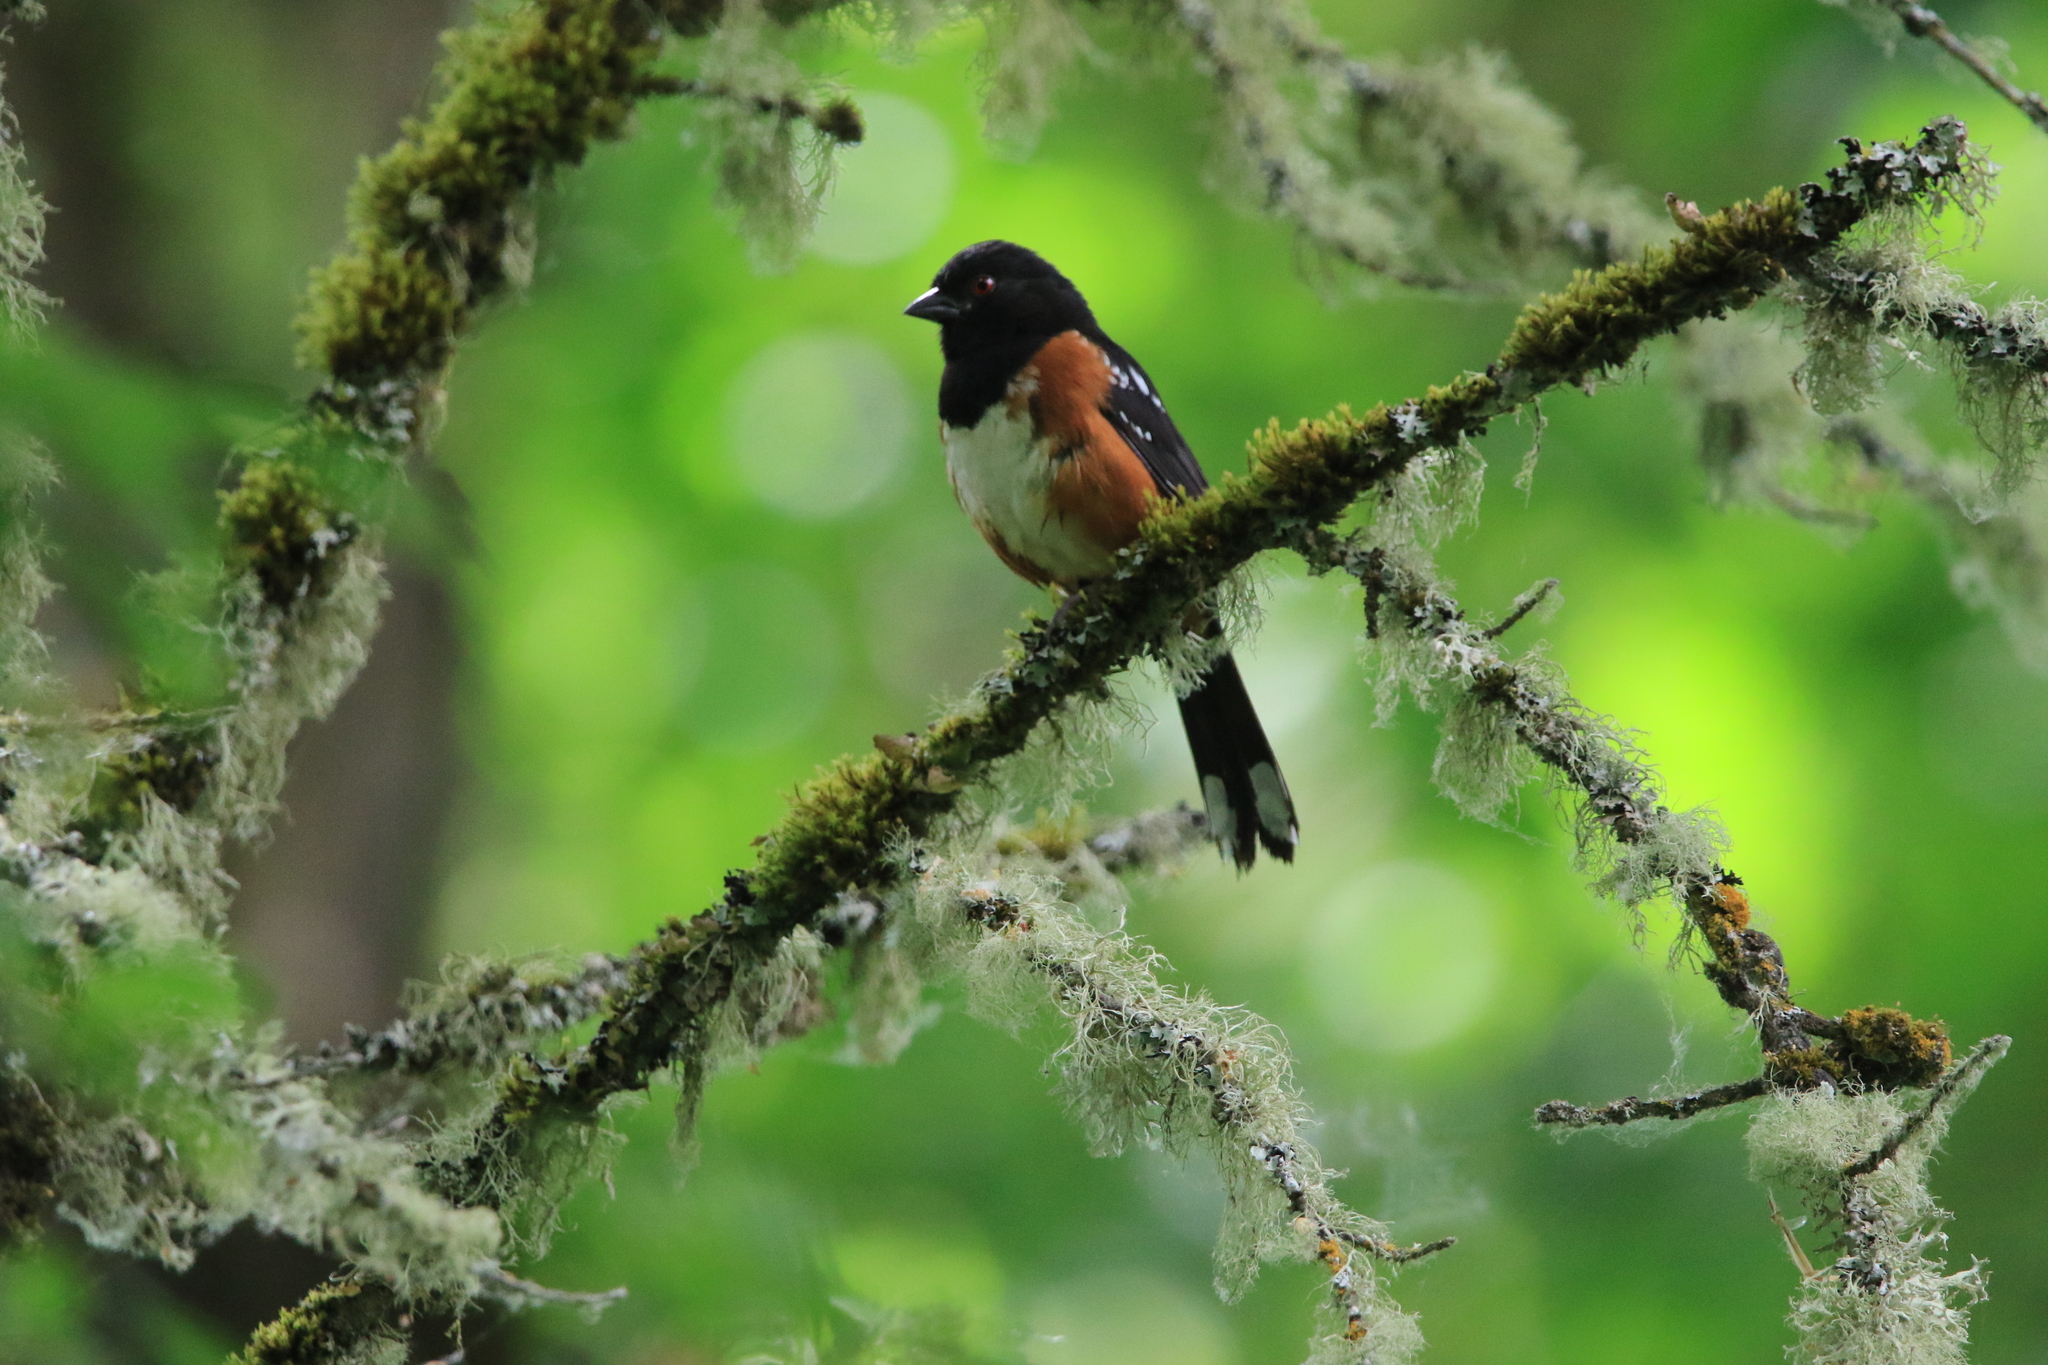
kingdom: Animalia
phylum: Chordata
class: Aves
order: Passeriformes
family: Passerellidae
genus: Pipilo
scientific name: Pipilo maculatus
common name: Spotted towhee
